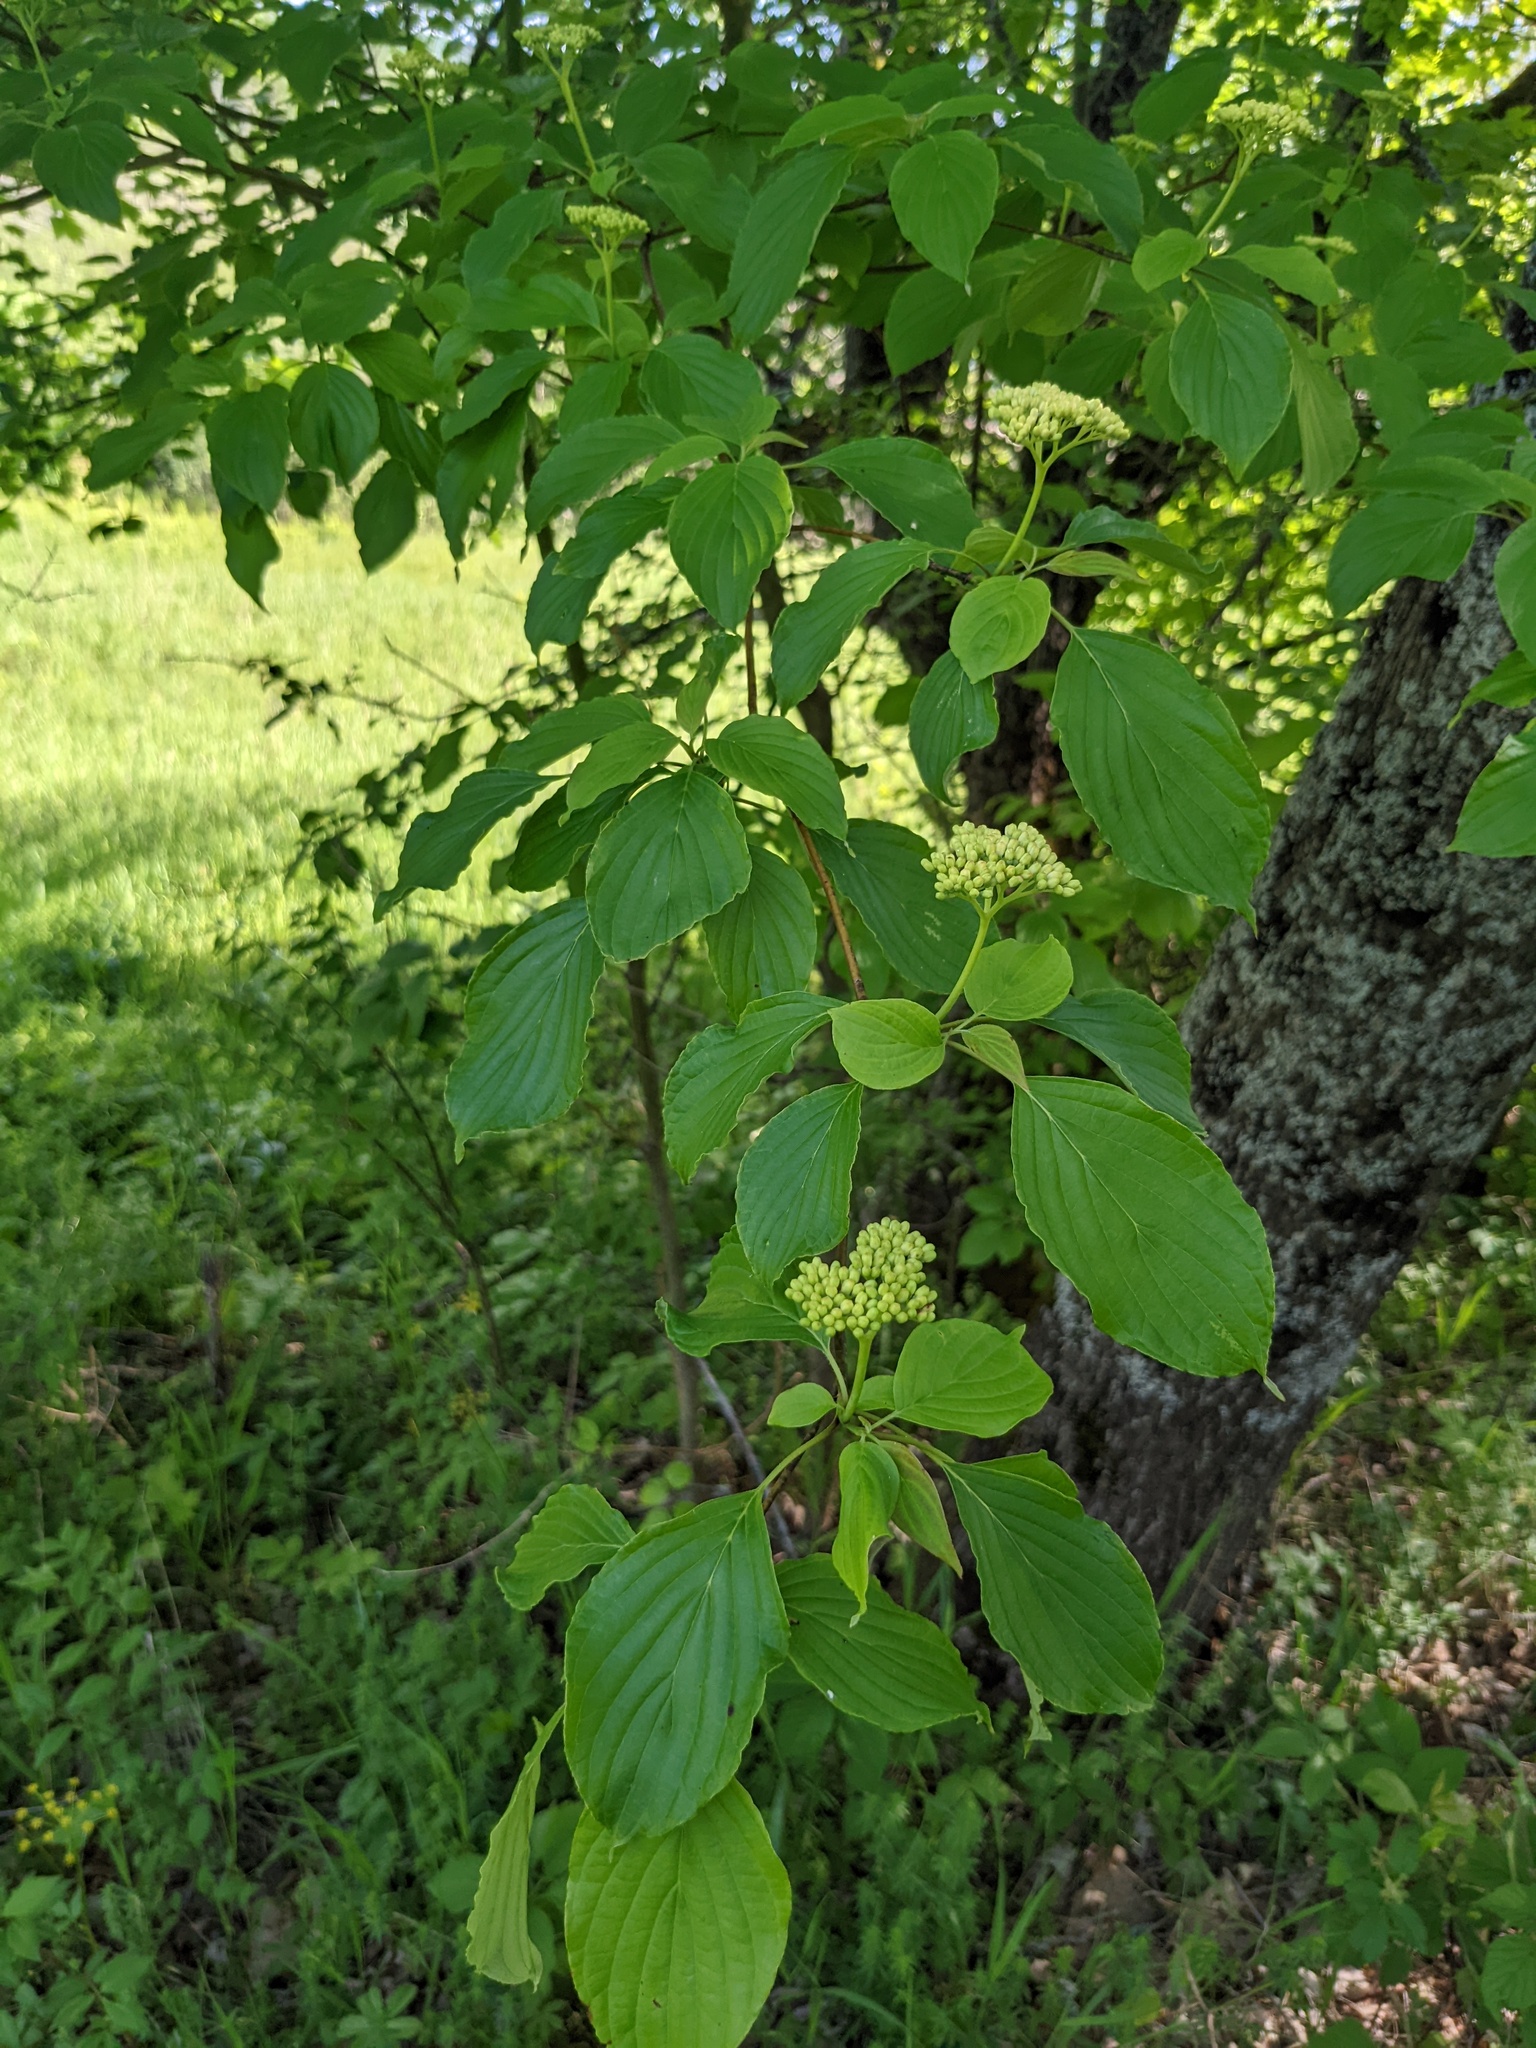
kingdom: Plantae
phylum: Tracheophyta
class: Magnoliopsida
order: Cornales
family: Cornaceae
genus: Cornus
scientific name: Cornus alternifolia
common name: Pagoda dogwood
